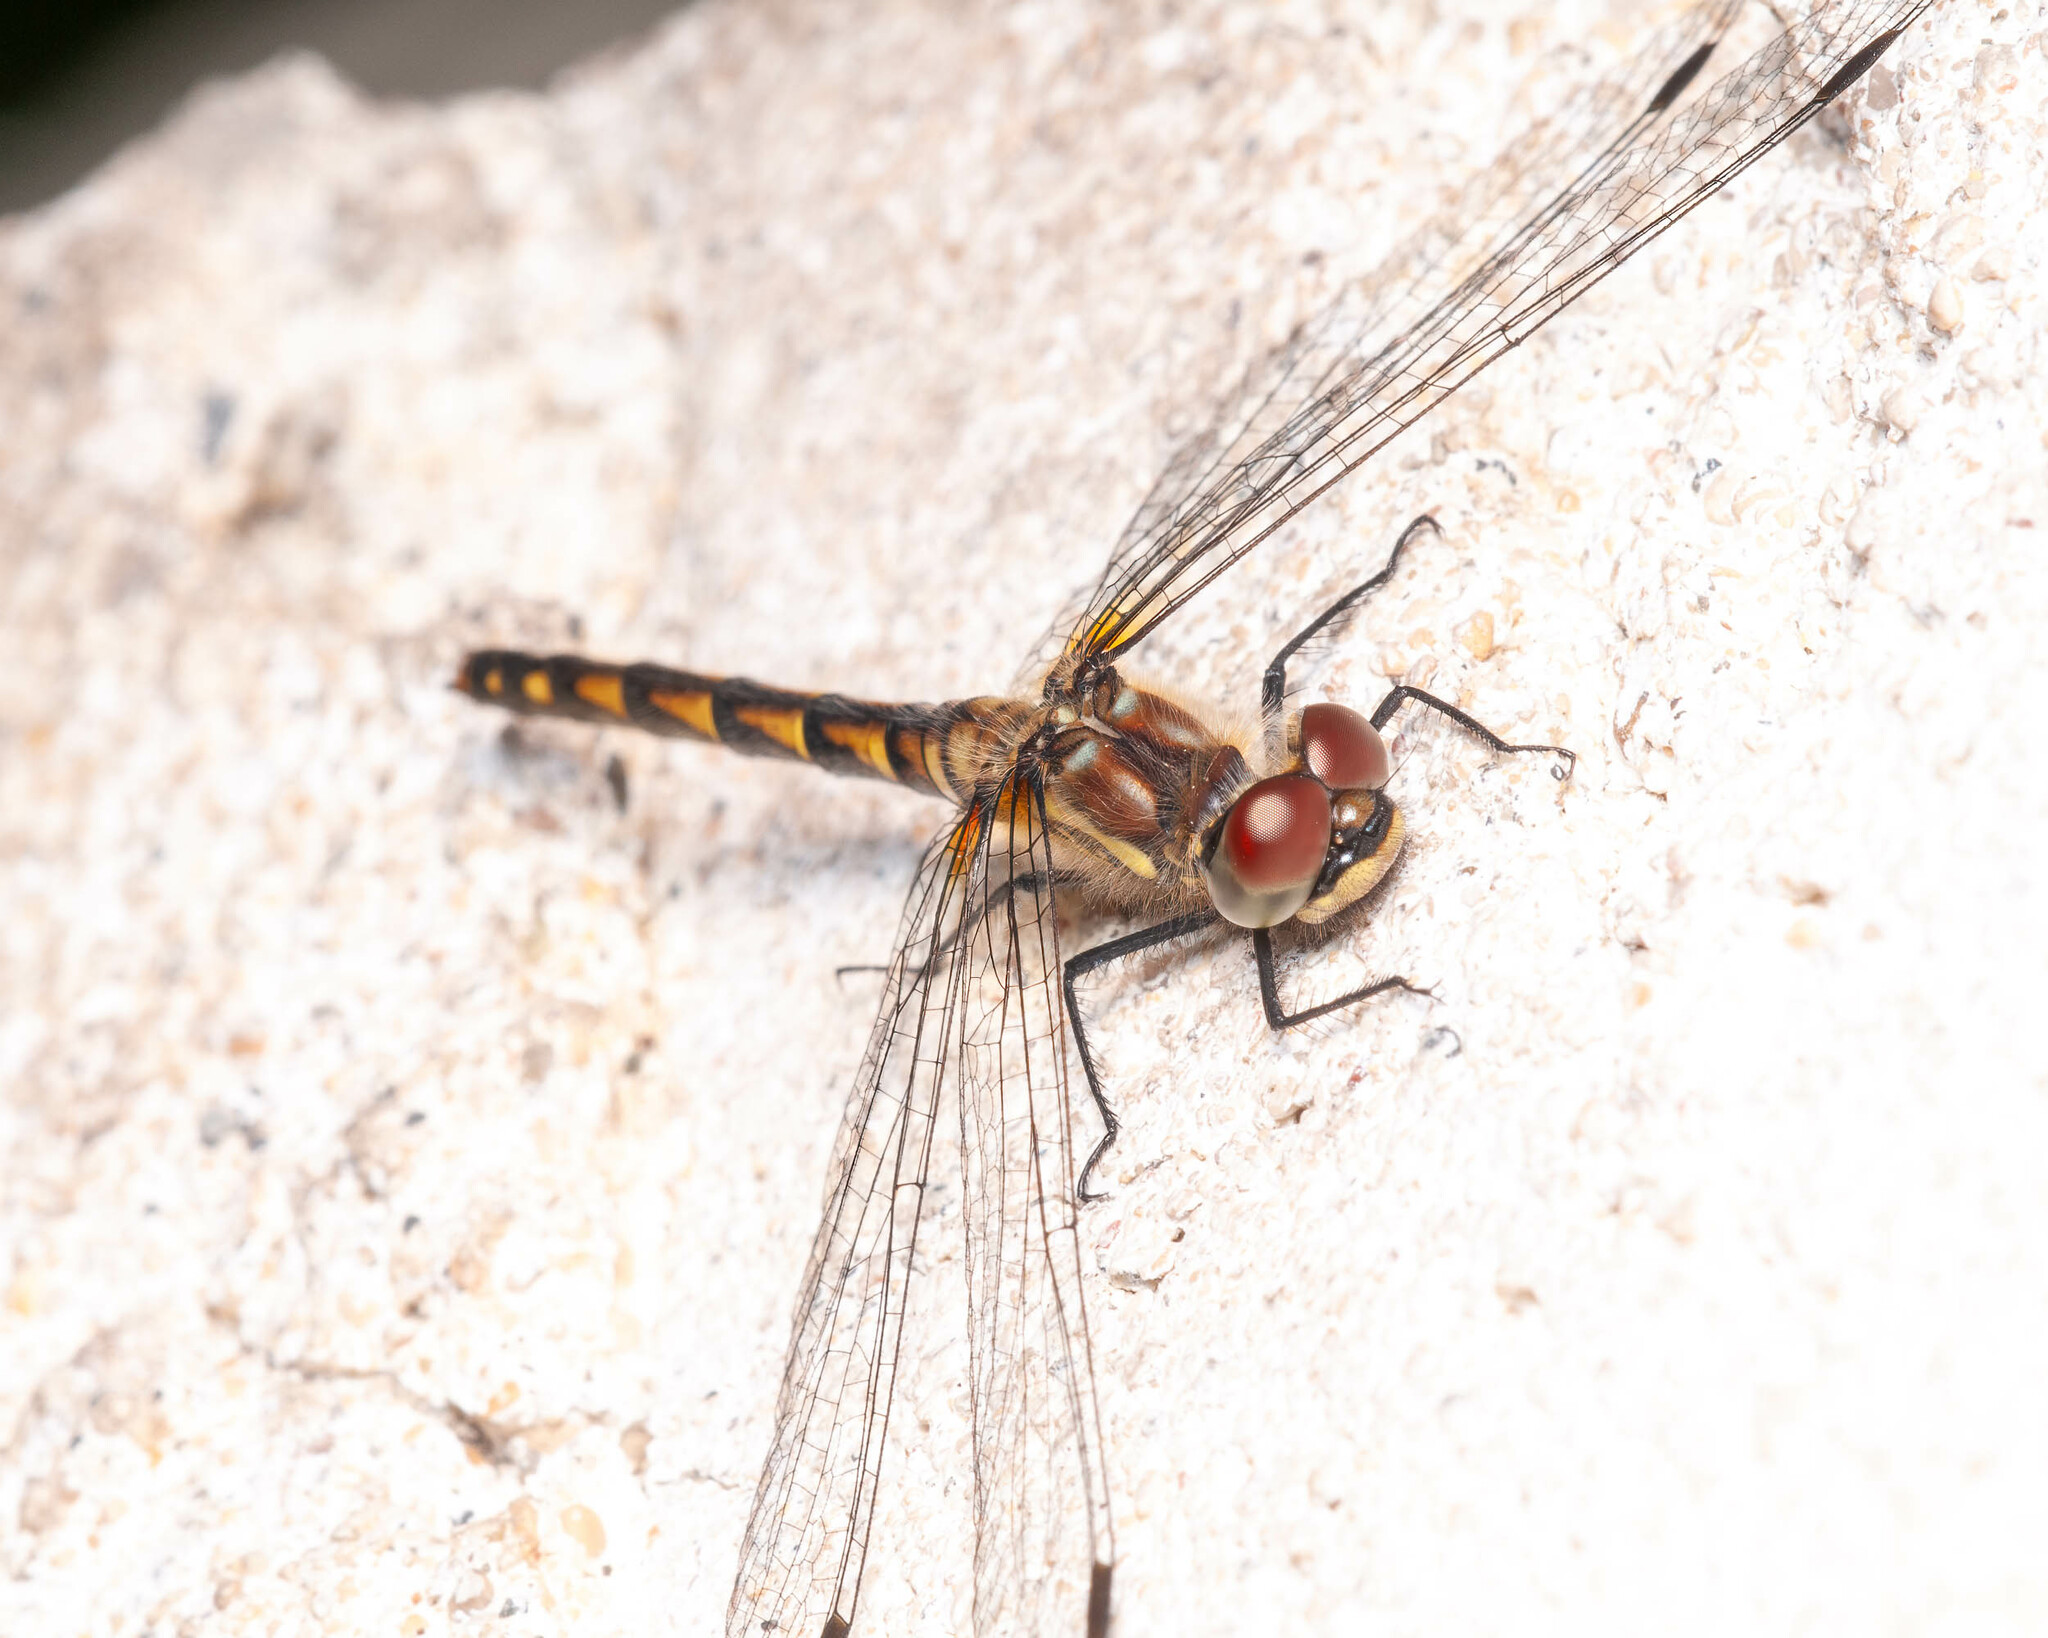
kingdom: Animalia
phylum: Arthropoda
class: Insecta
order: Odonata
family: Libellulidae
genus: Sympetrum
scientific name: Sympetrum danae
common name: Black darter
